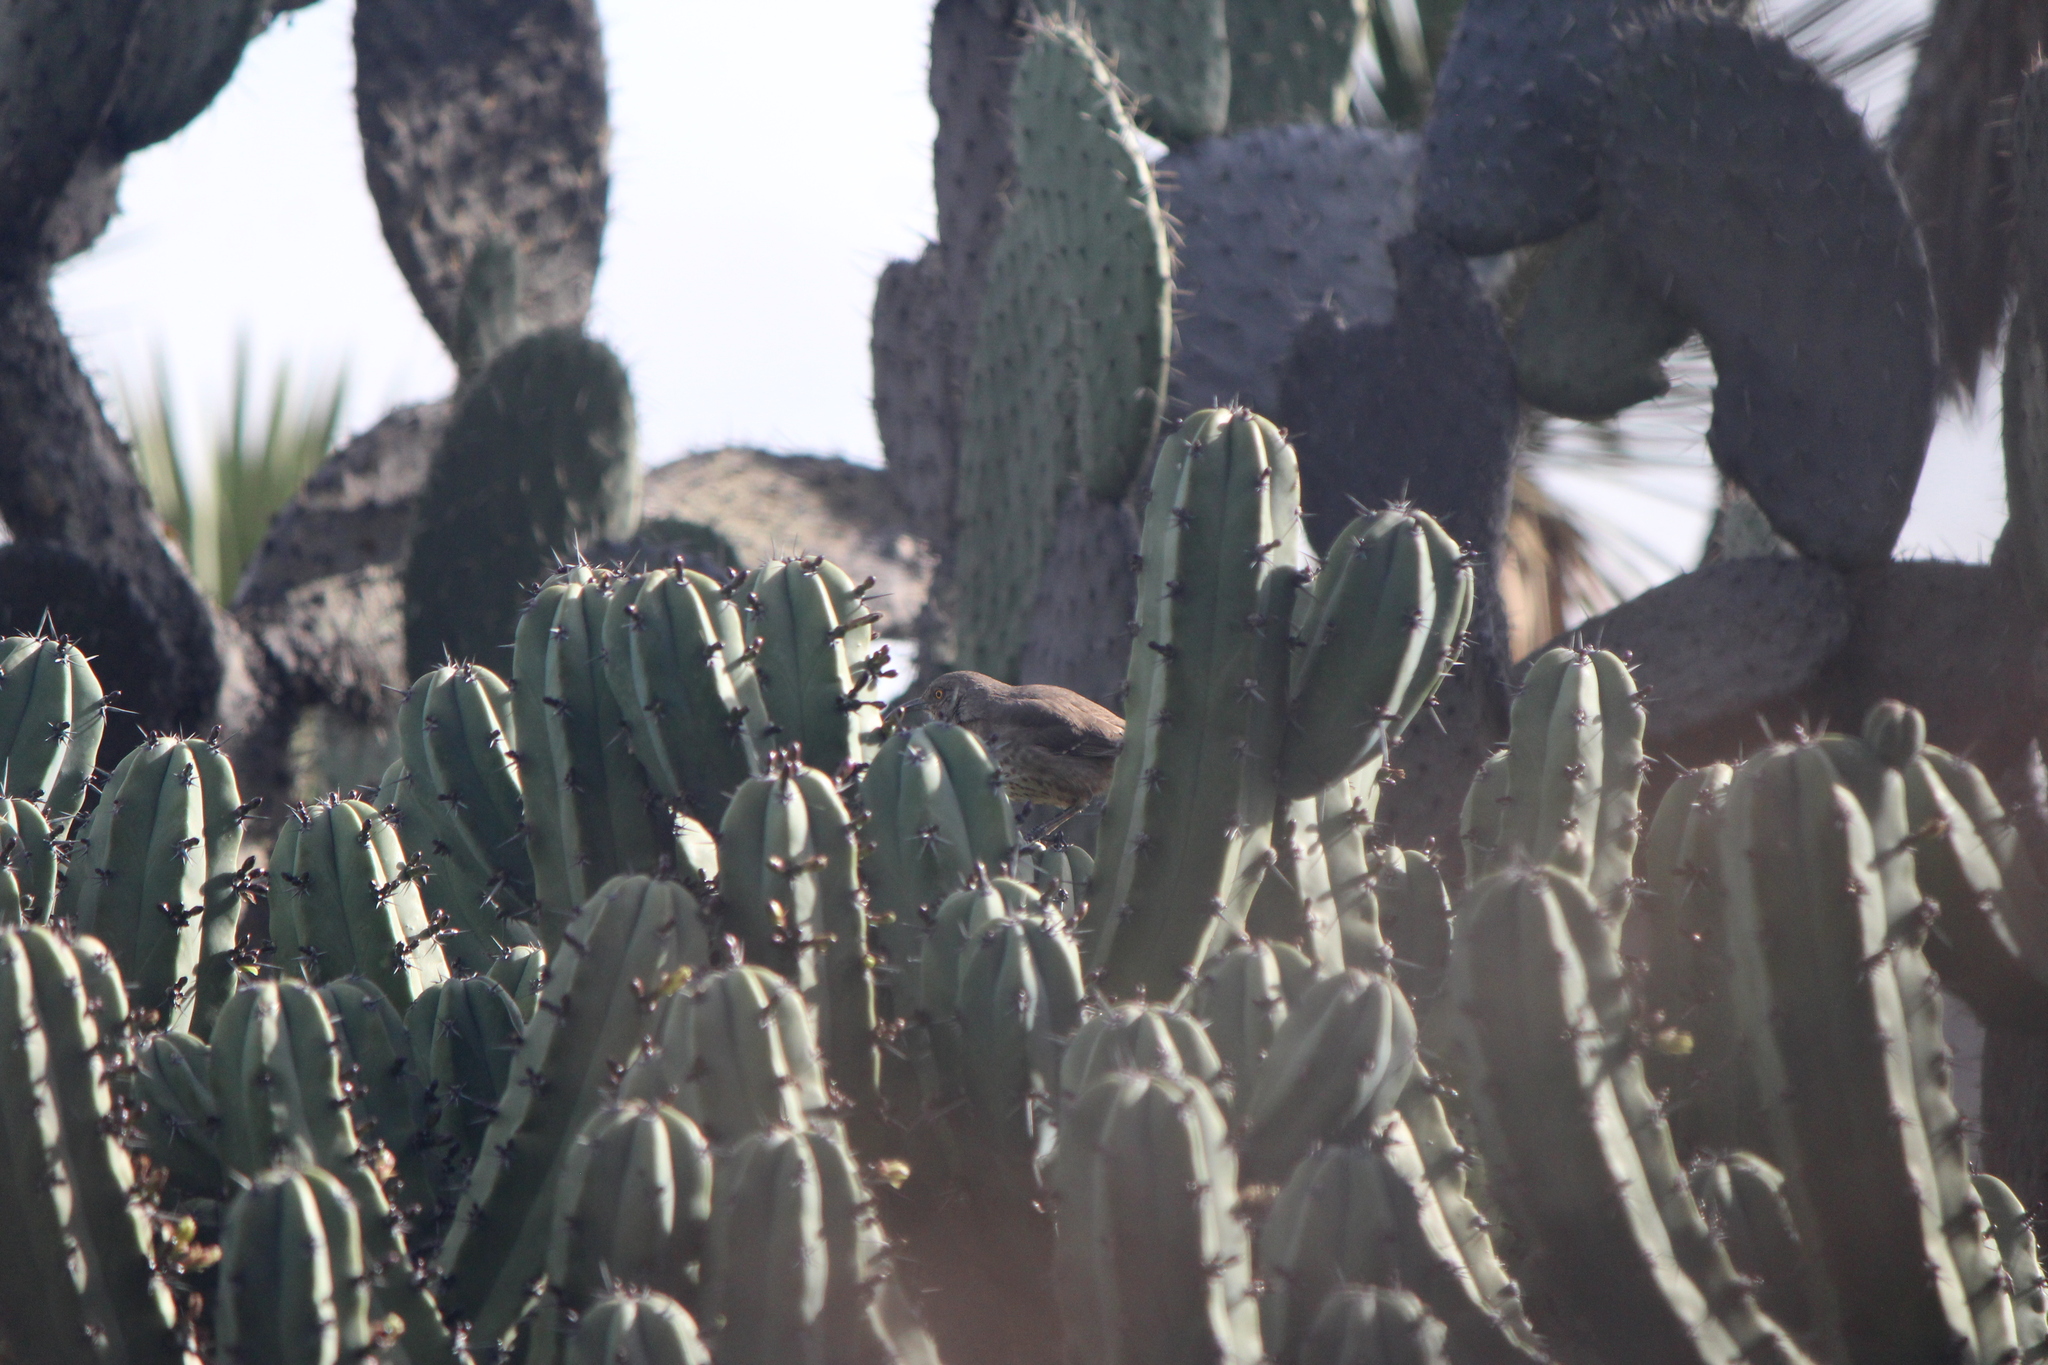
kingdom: Animalia
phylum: Chordata
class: Aves
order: Passeriformes
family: Mimidae
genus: Toxostoma
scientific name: Toxostoma curvirostre
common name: Curve-billed thrasher
